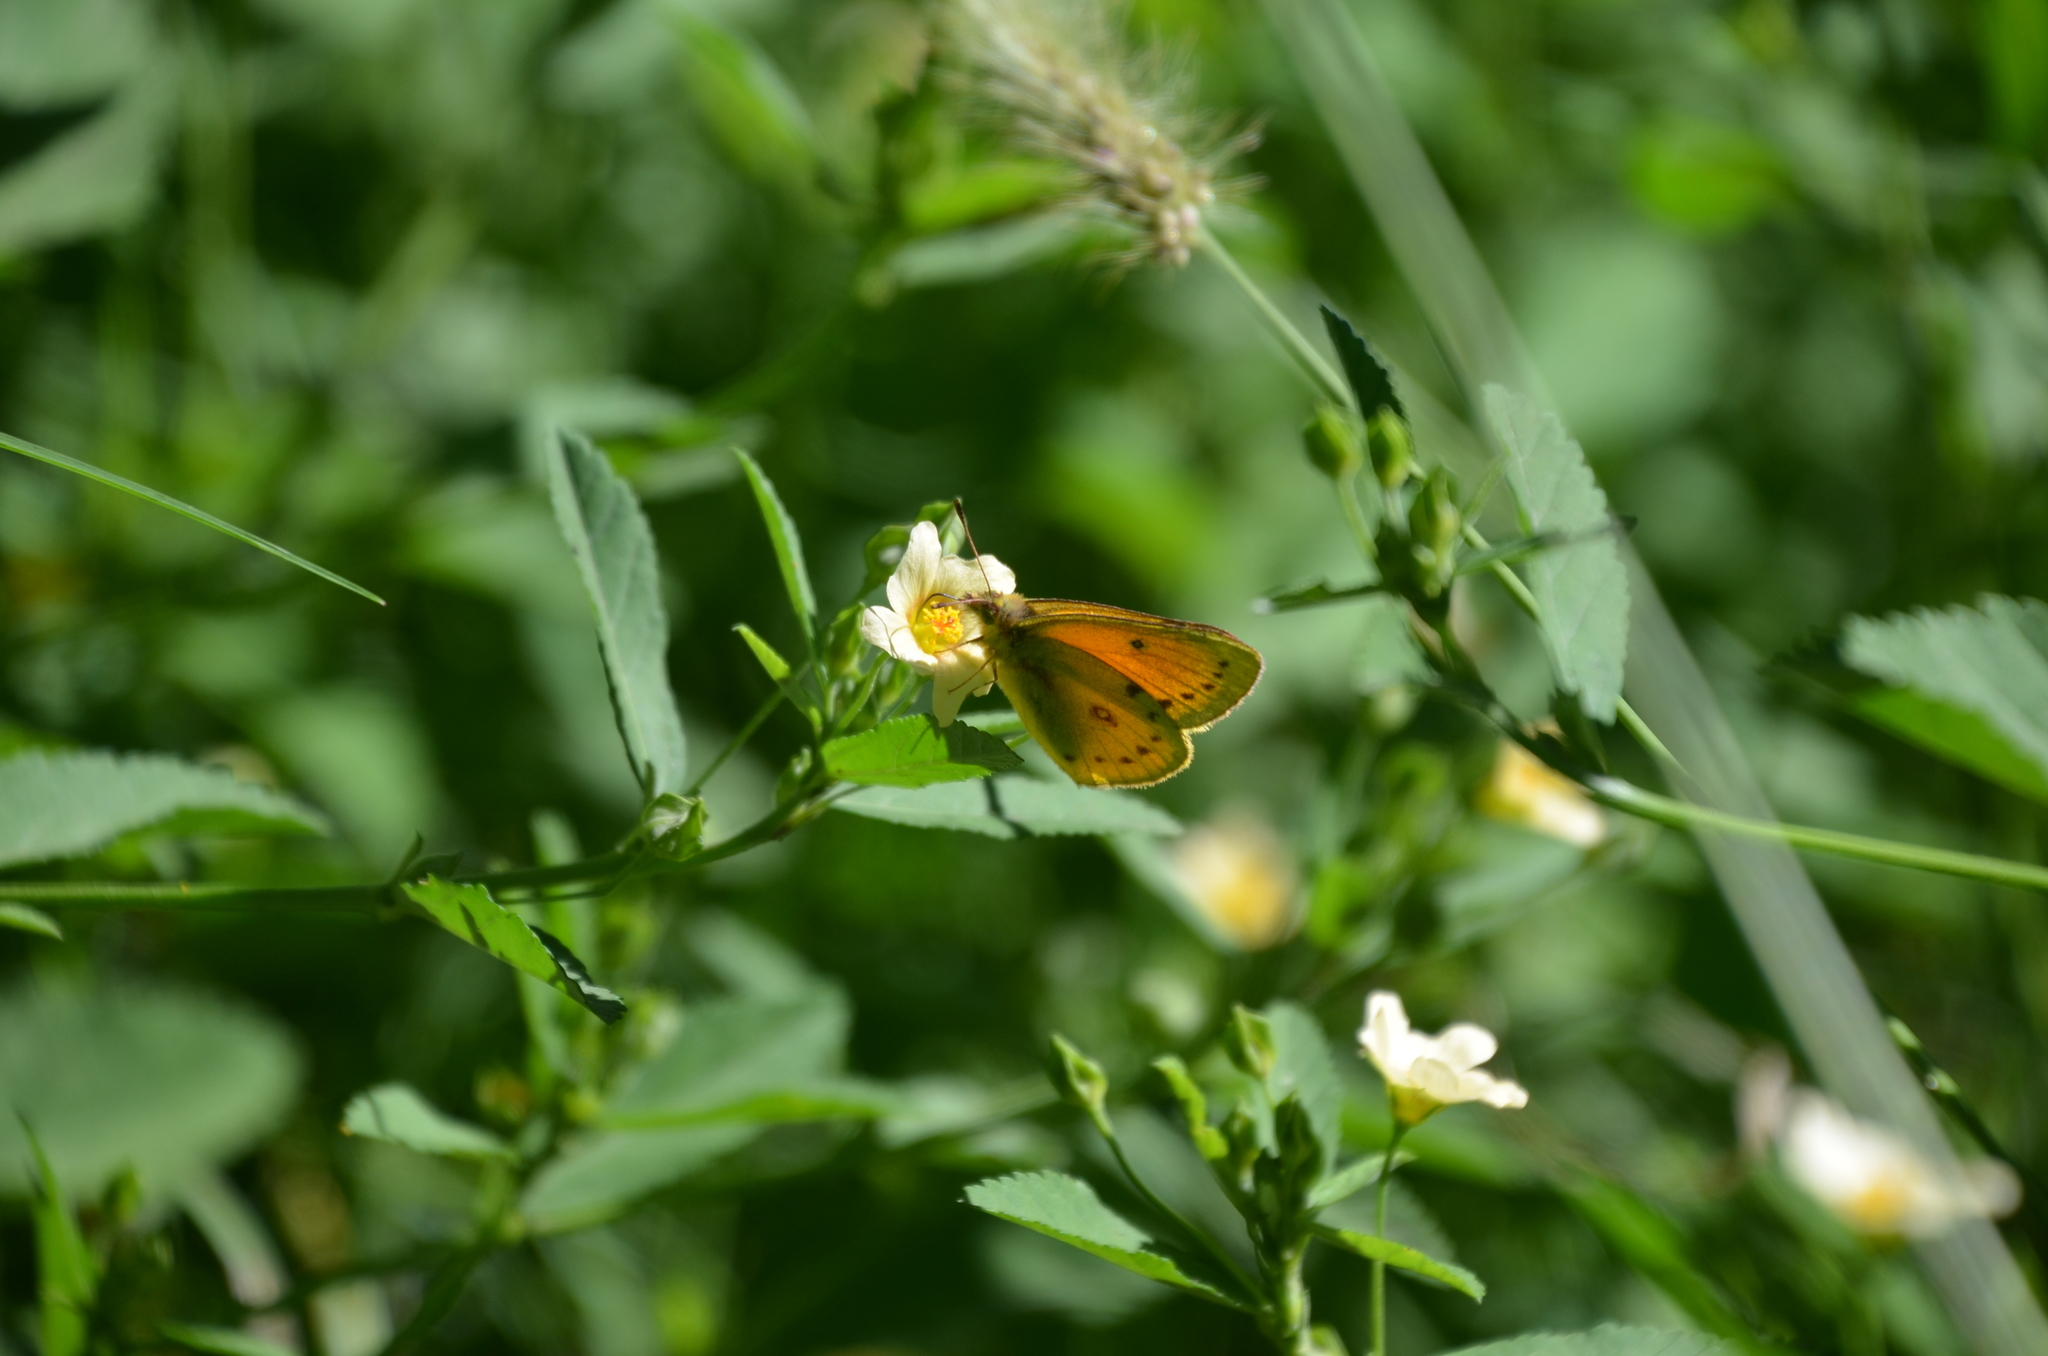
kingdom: Animalia
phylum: Arthropoda
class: Insecta
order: Lepidoptera
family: Pieridae
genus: Colias
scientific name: Colias lesbia
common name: Lesbia clouded yellow
